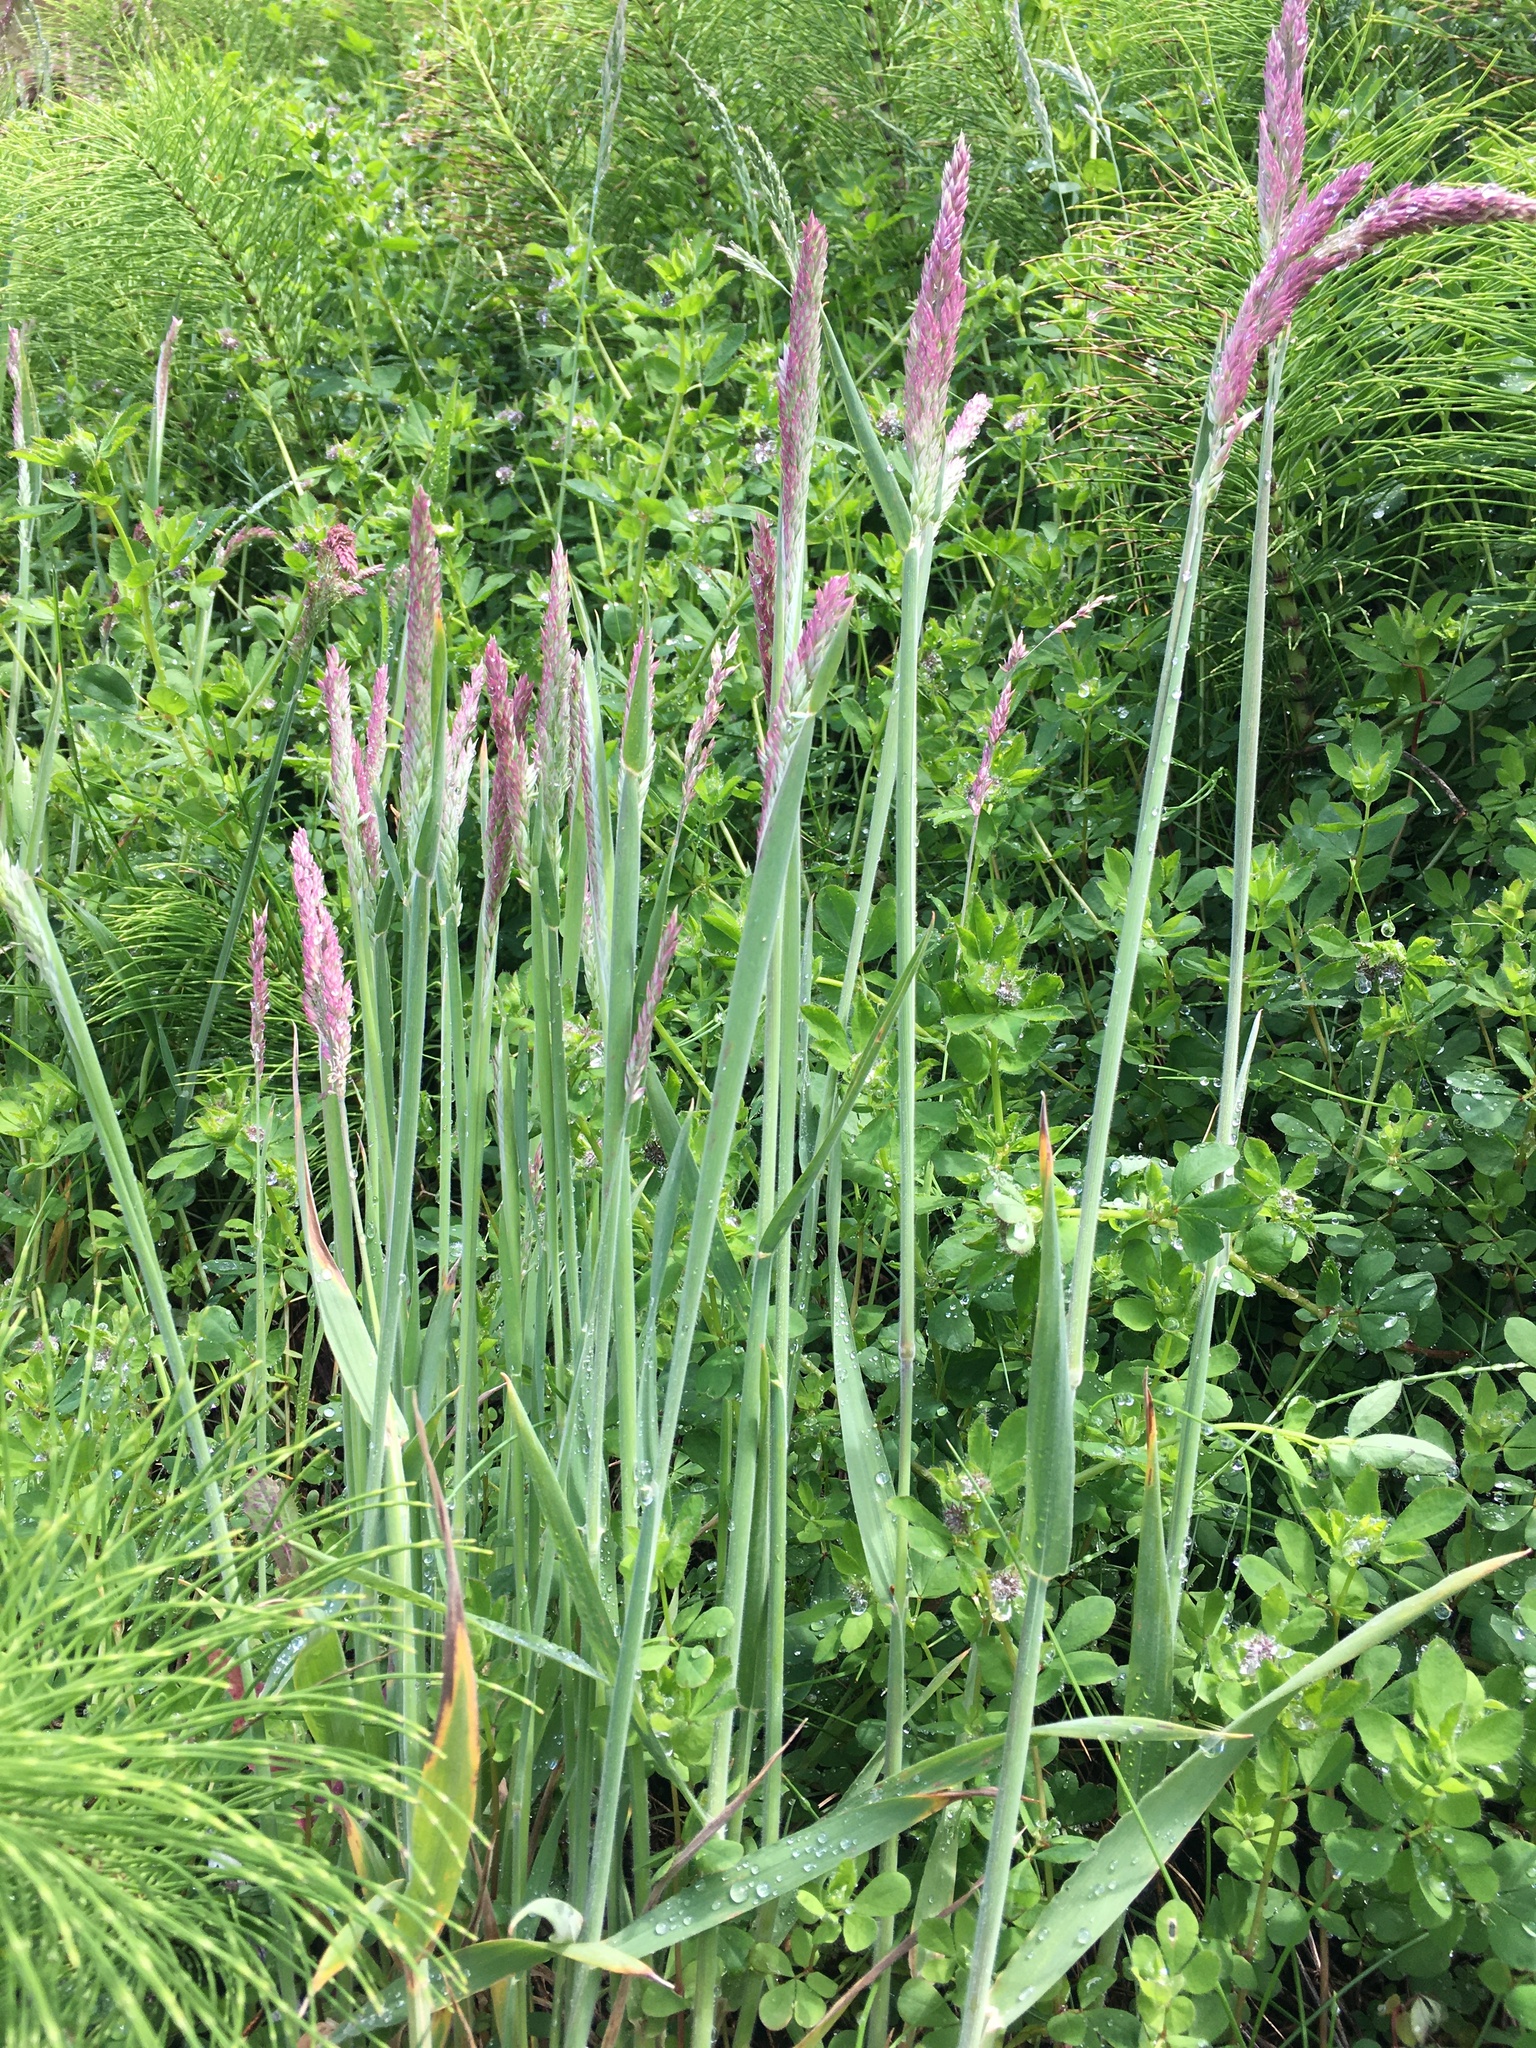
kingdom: Plantae
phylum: Tracheophyta
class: Liliopsida
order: Poales
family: Poaceae
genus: Holcus
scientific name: Holcus lanatus
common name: Yorkshire-fog
